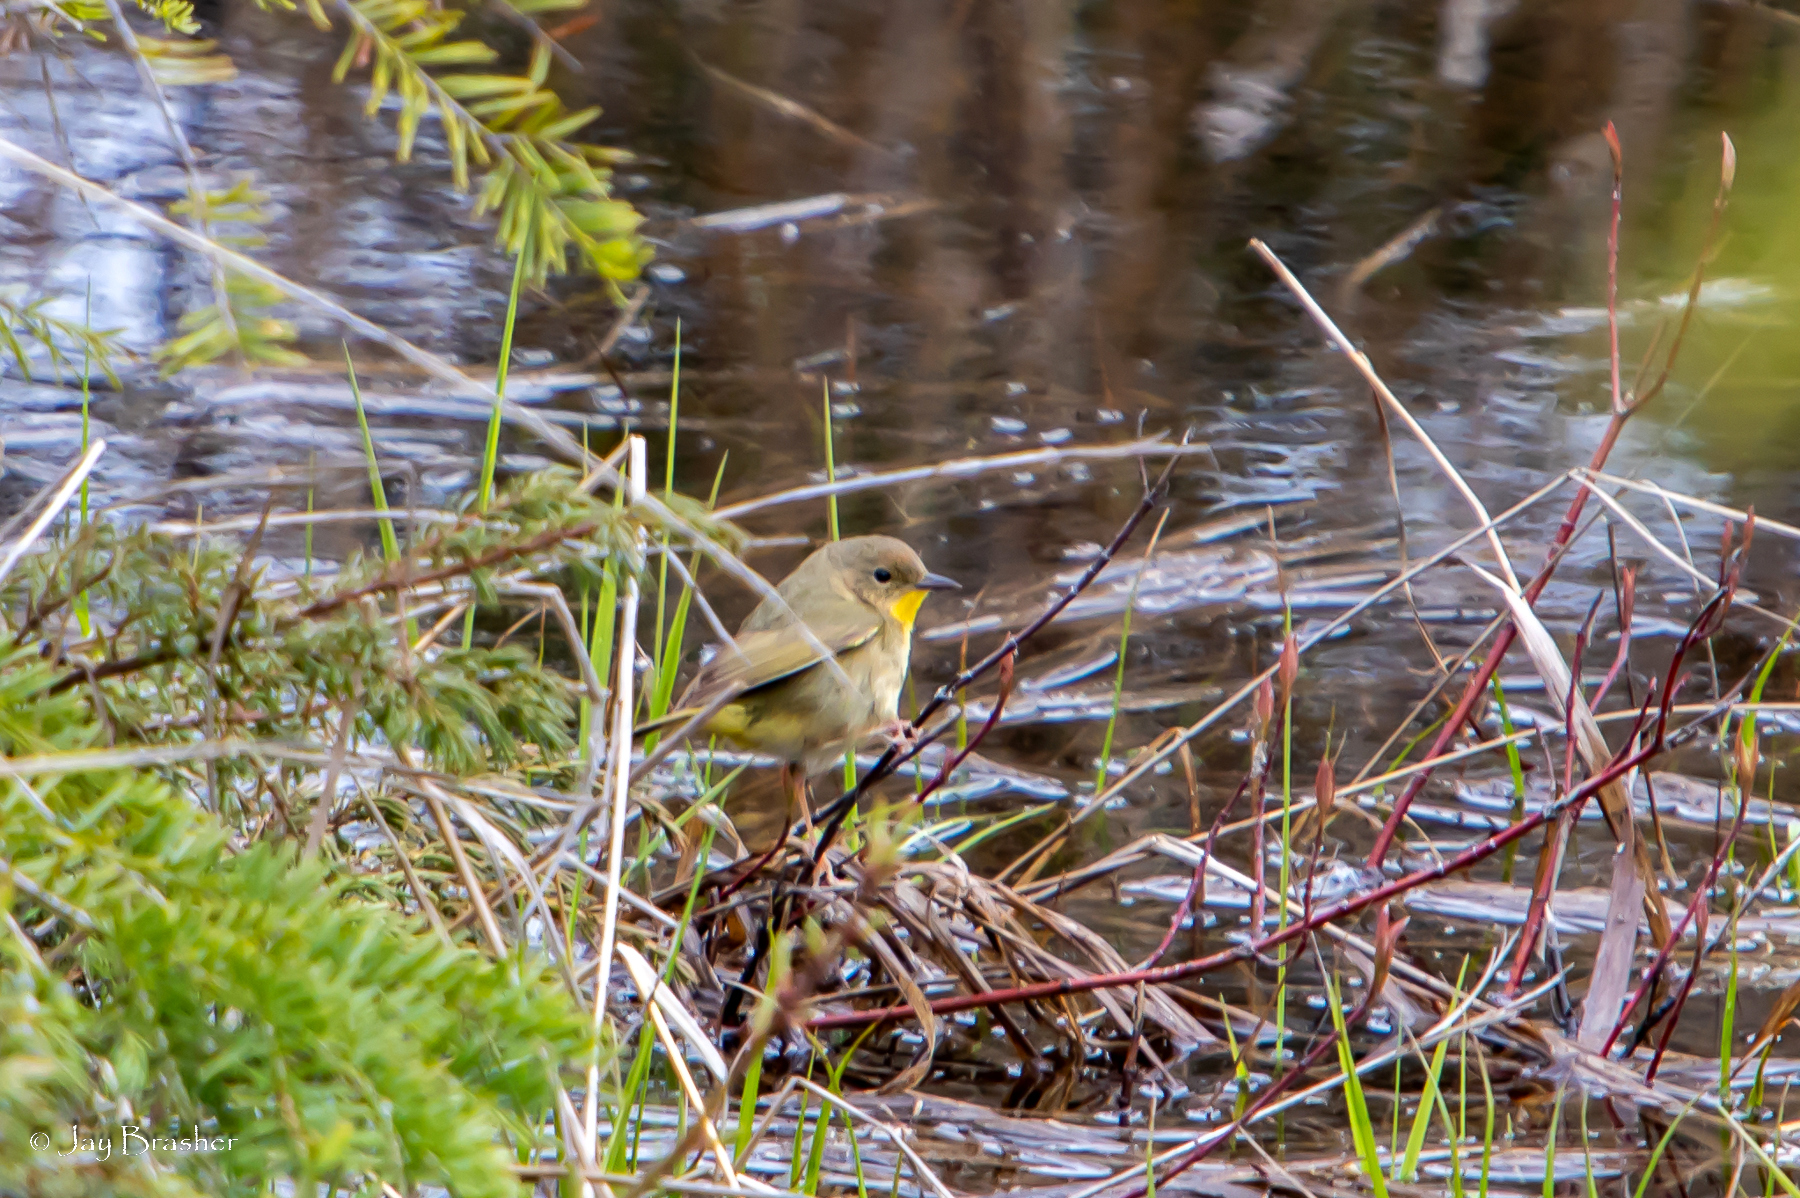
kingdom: Animalia
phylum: Chordata
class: Aves
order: Passeriformes
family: Parulidae
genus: Geothlypis
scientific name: Geothlypis trichas
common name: Common yellowthroat
